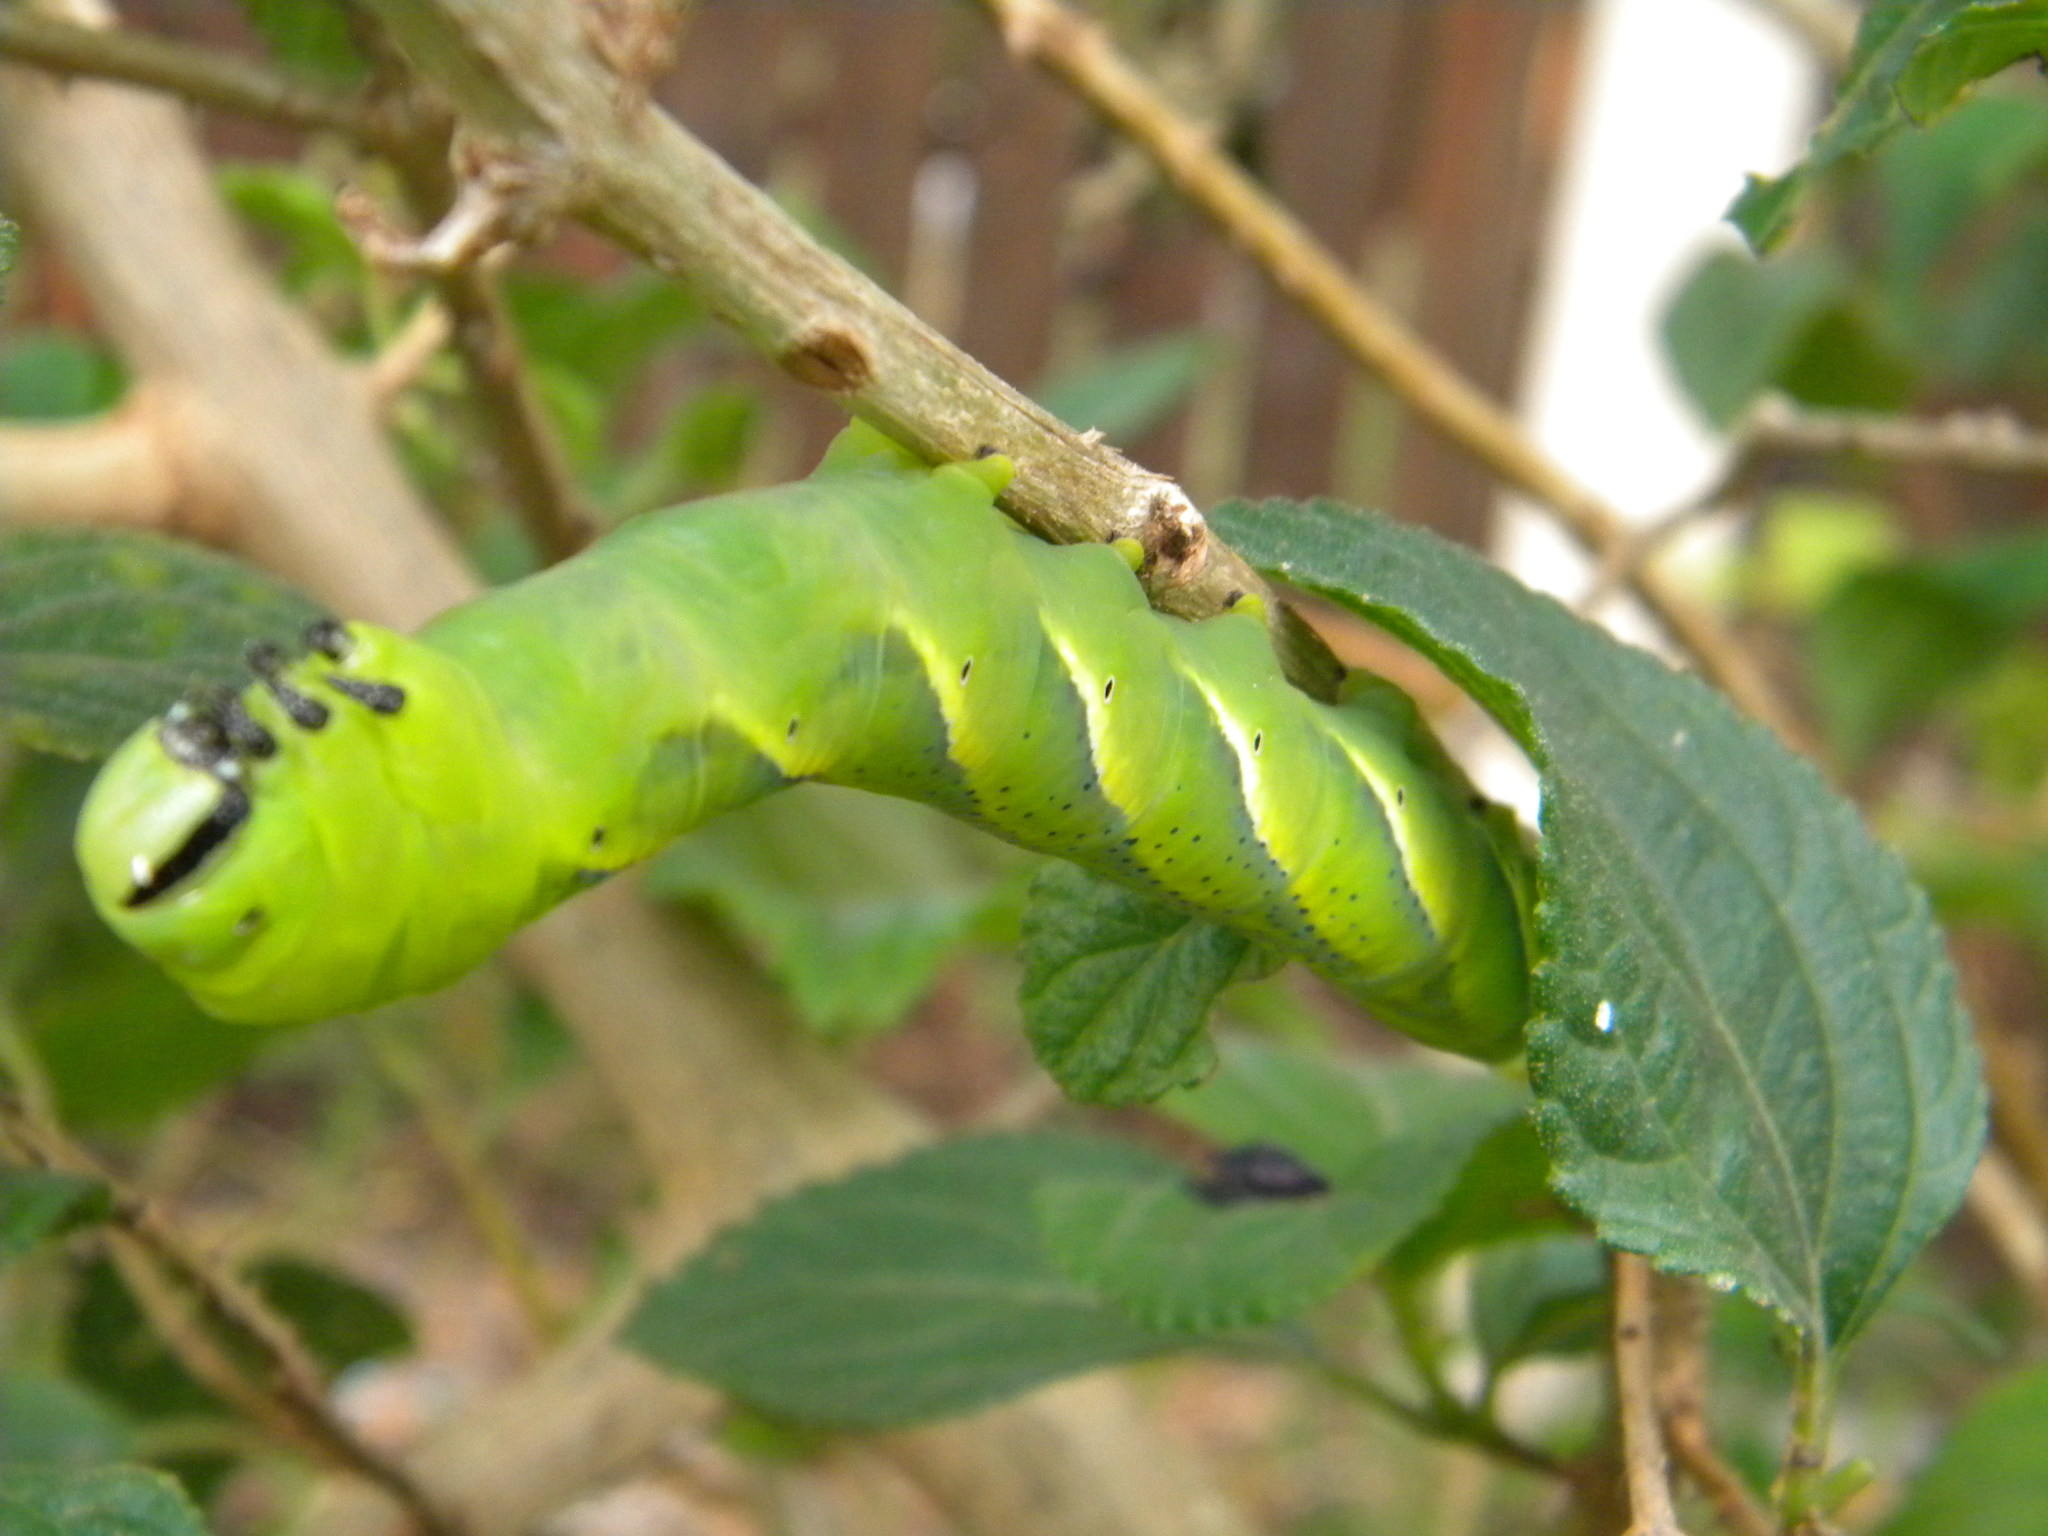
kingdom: Animalia
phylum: Arthropoda
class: Insecta
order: Lepidoptera
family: Sphingidae
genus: Acherontia
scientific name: Acherontia atropos
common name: Death's-head hawk moth
